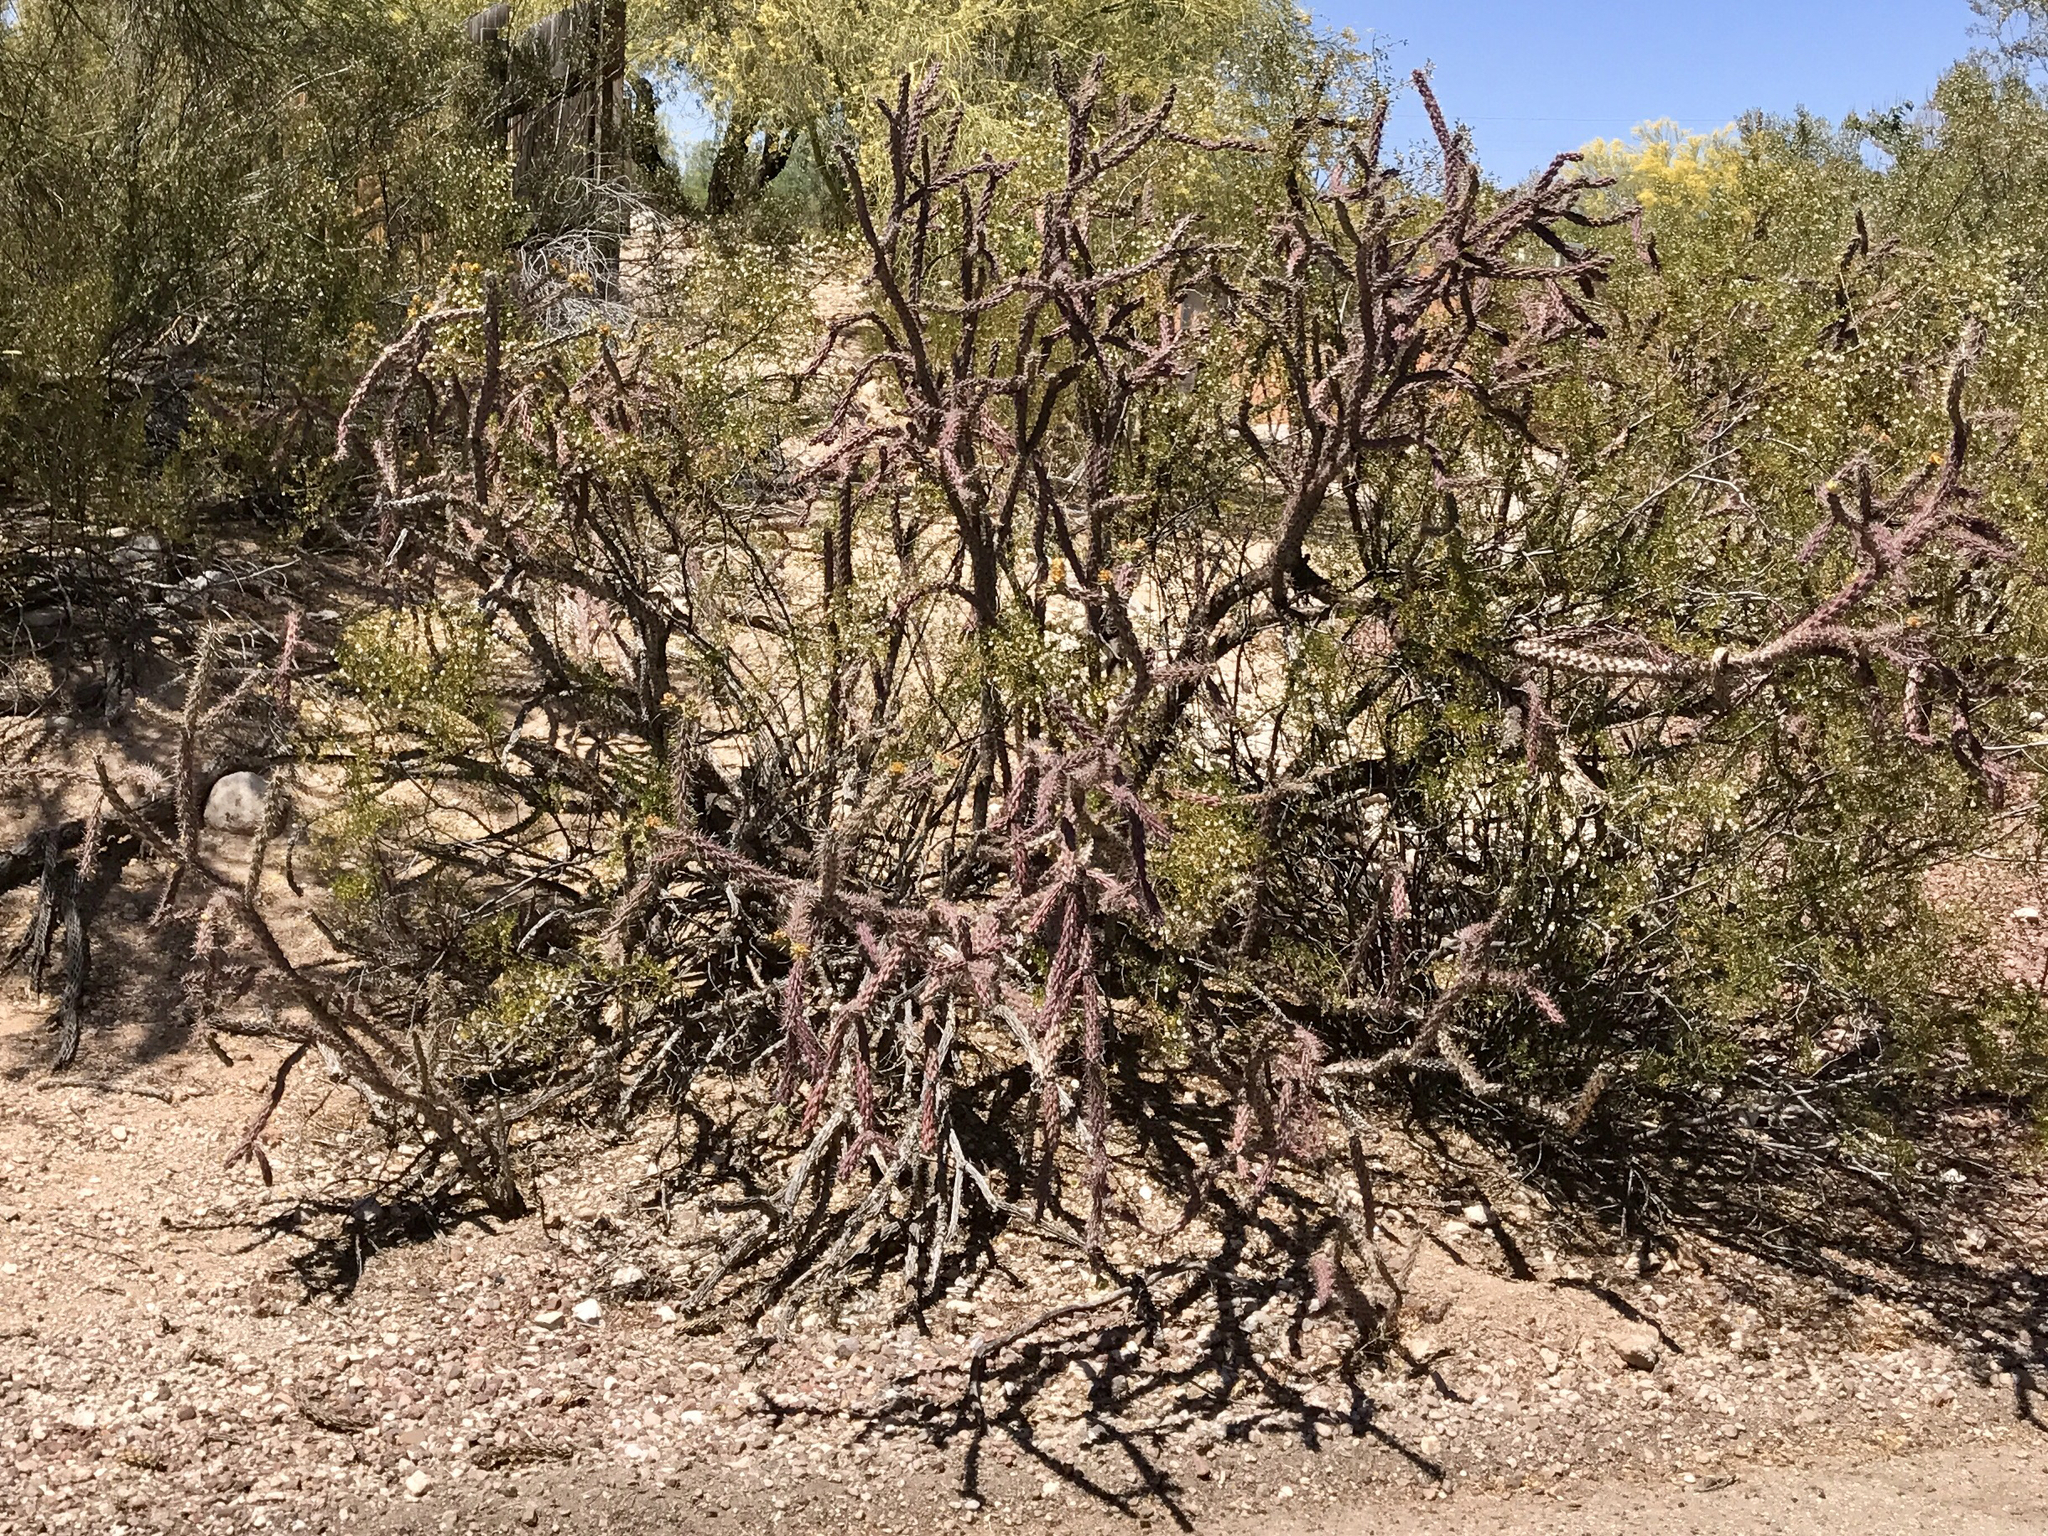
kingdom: Plantae
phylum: Tracheophyta
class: Magnoliopsida
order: Caryophyllales
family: Cactaceae
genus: Cylindropuntia
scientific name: Cylindropuntia thurberi
